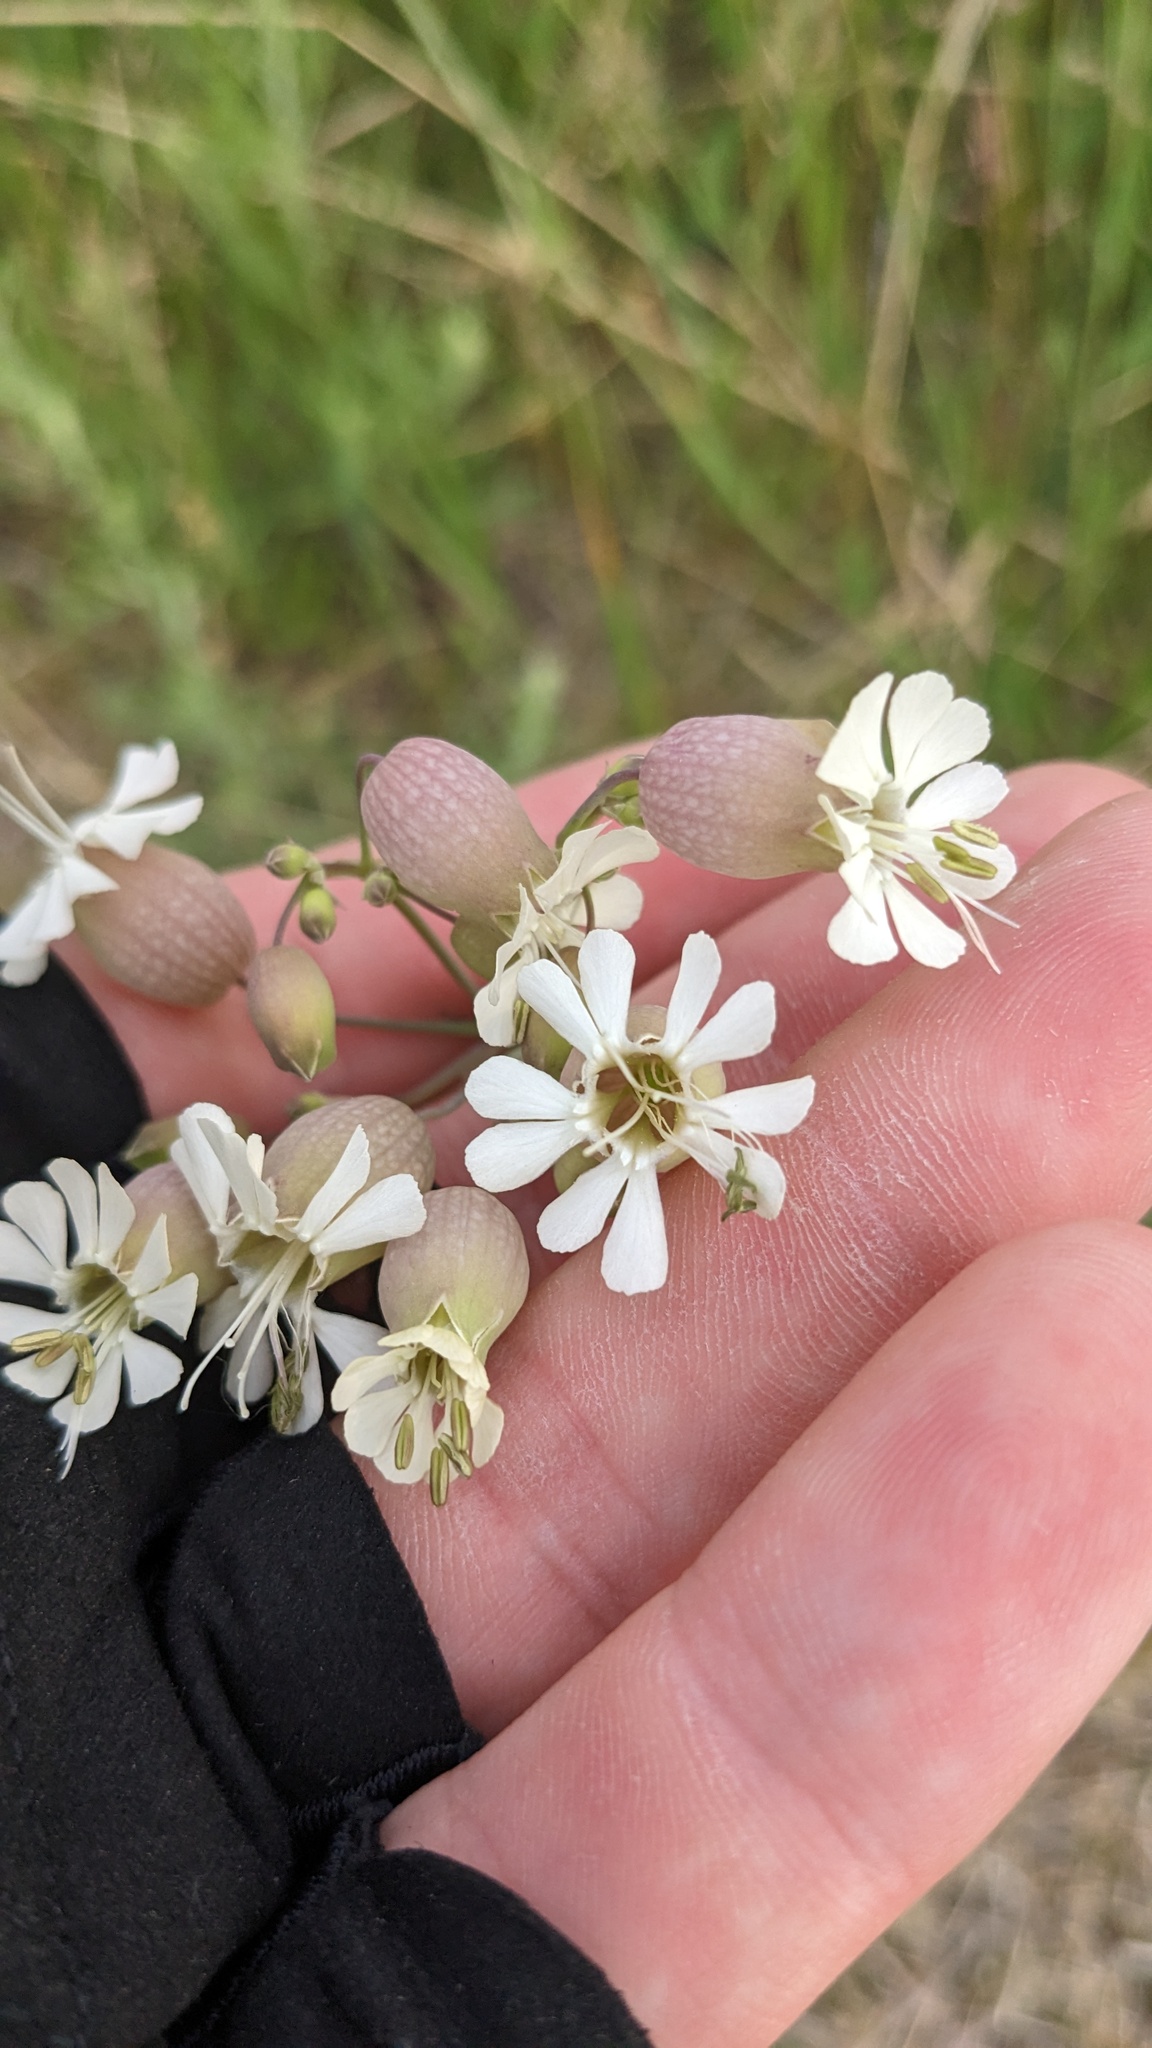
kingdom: Plantae
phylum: Tracheophyta
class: Magnoliopsida
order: Caryophyllales
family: Caryophyllaceae
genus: Silene
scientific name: Silene vulgaris
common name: Bladder campion
